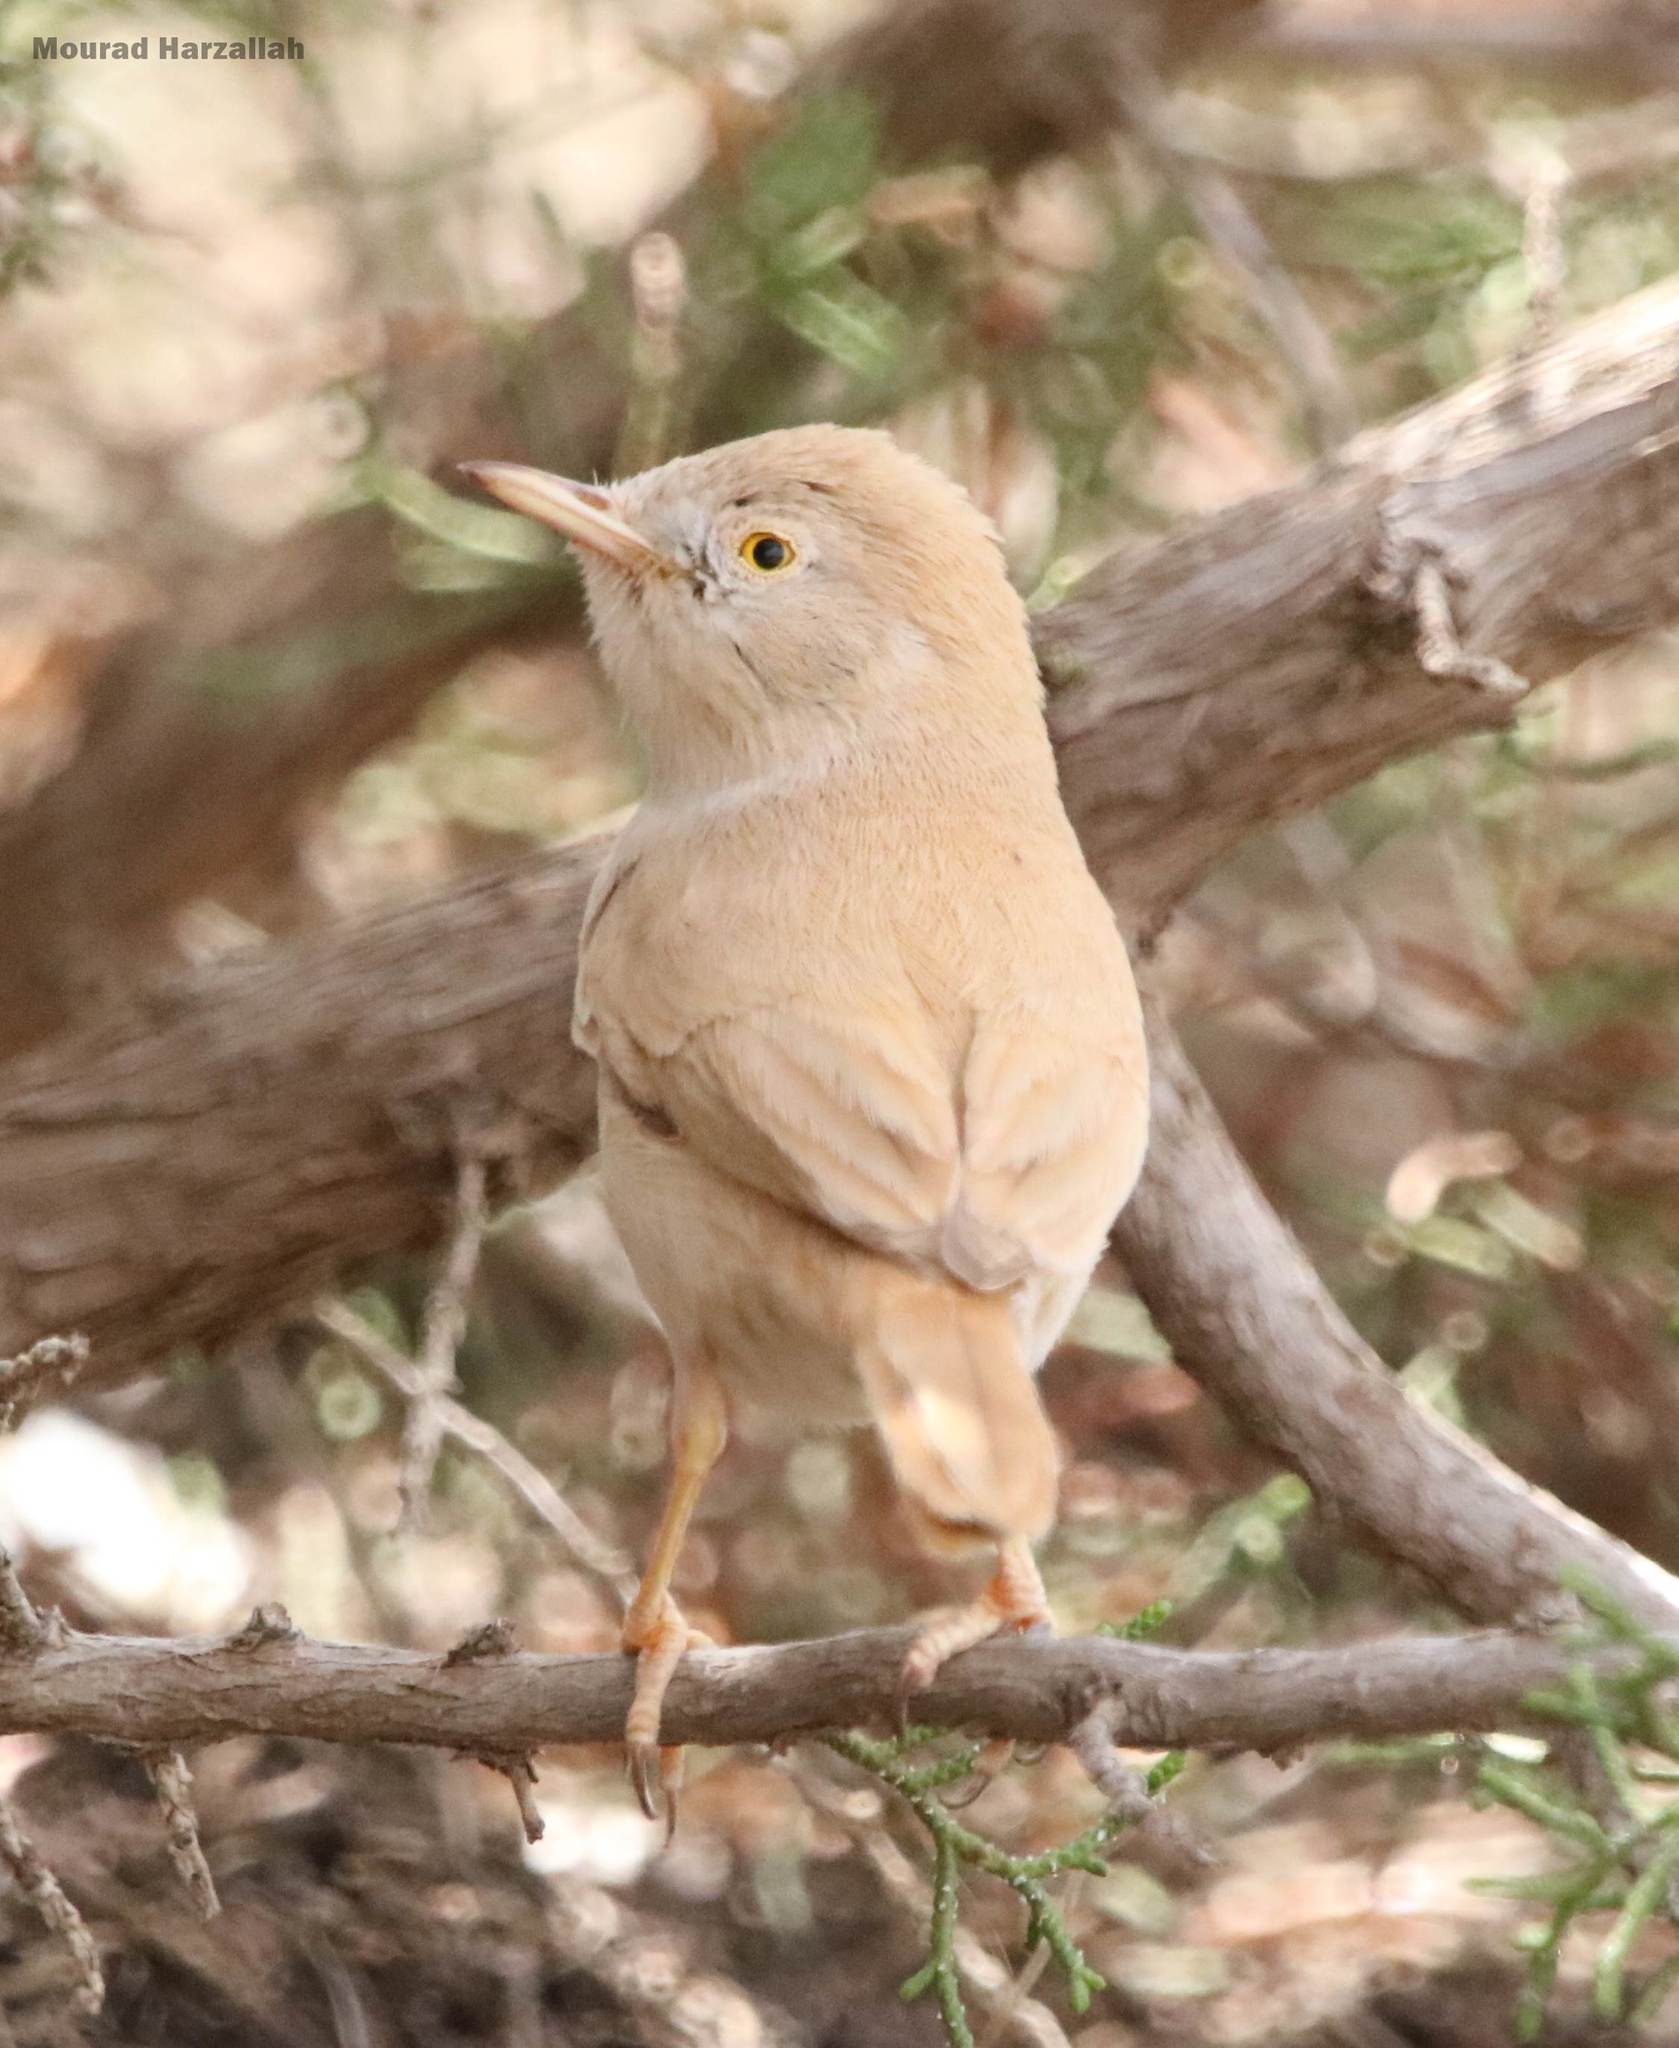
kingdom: Animalia
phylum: Chordata
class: Aves
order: Passeriformes
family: Sylviidae
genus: Sylvia
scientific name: Sylvia deserti
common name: African desert warbler
